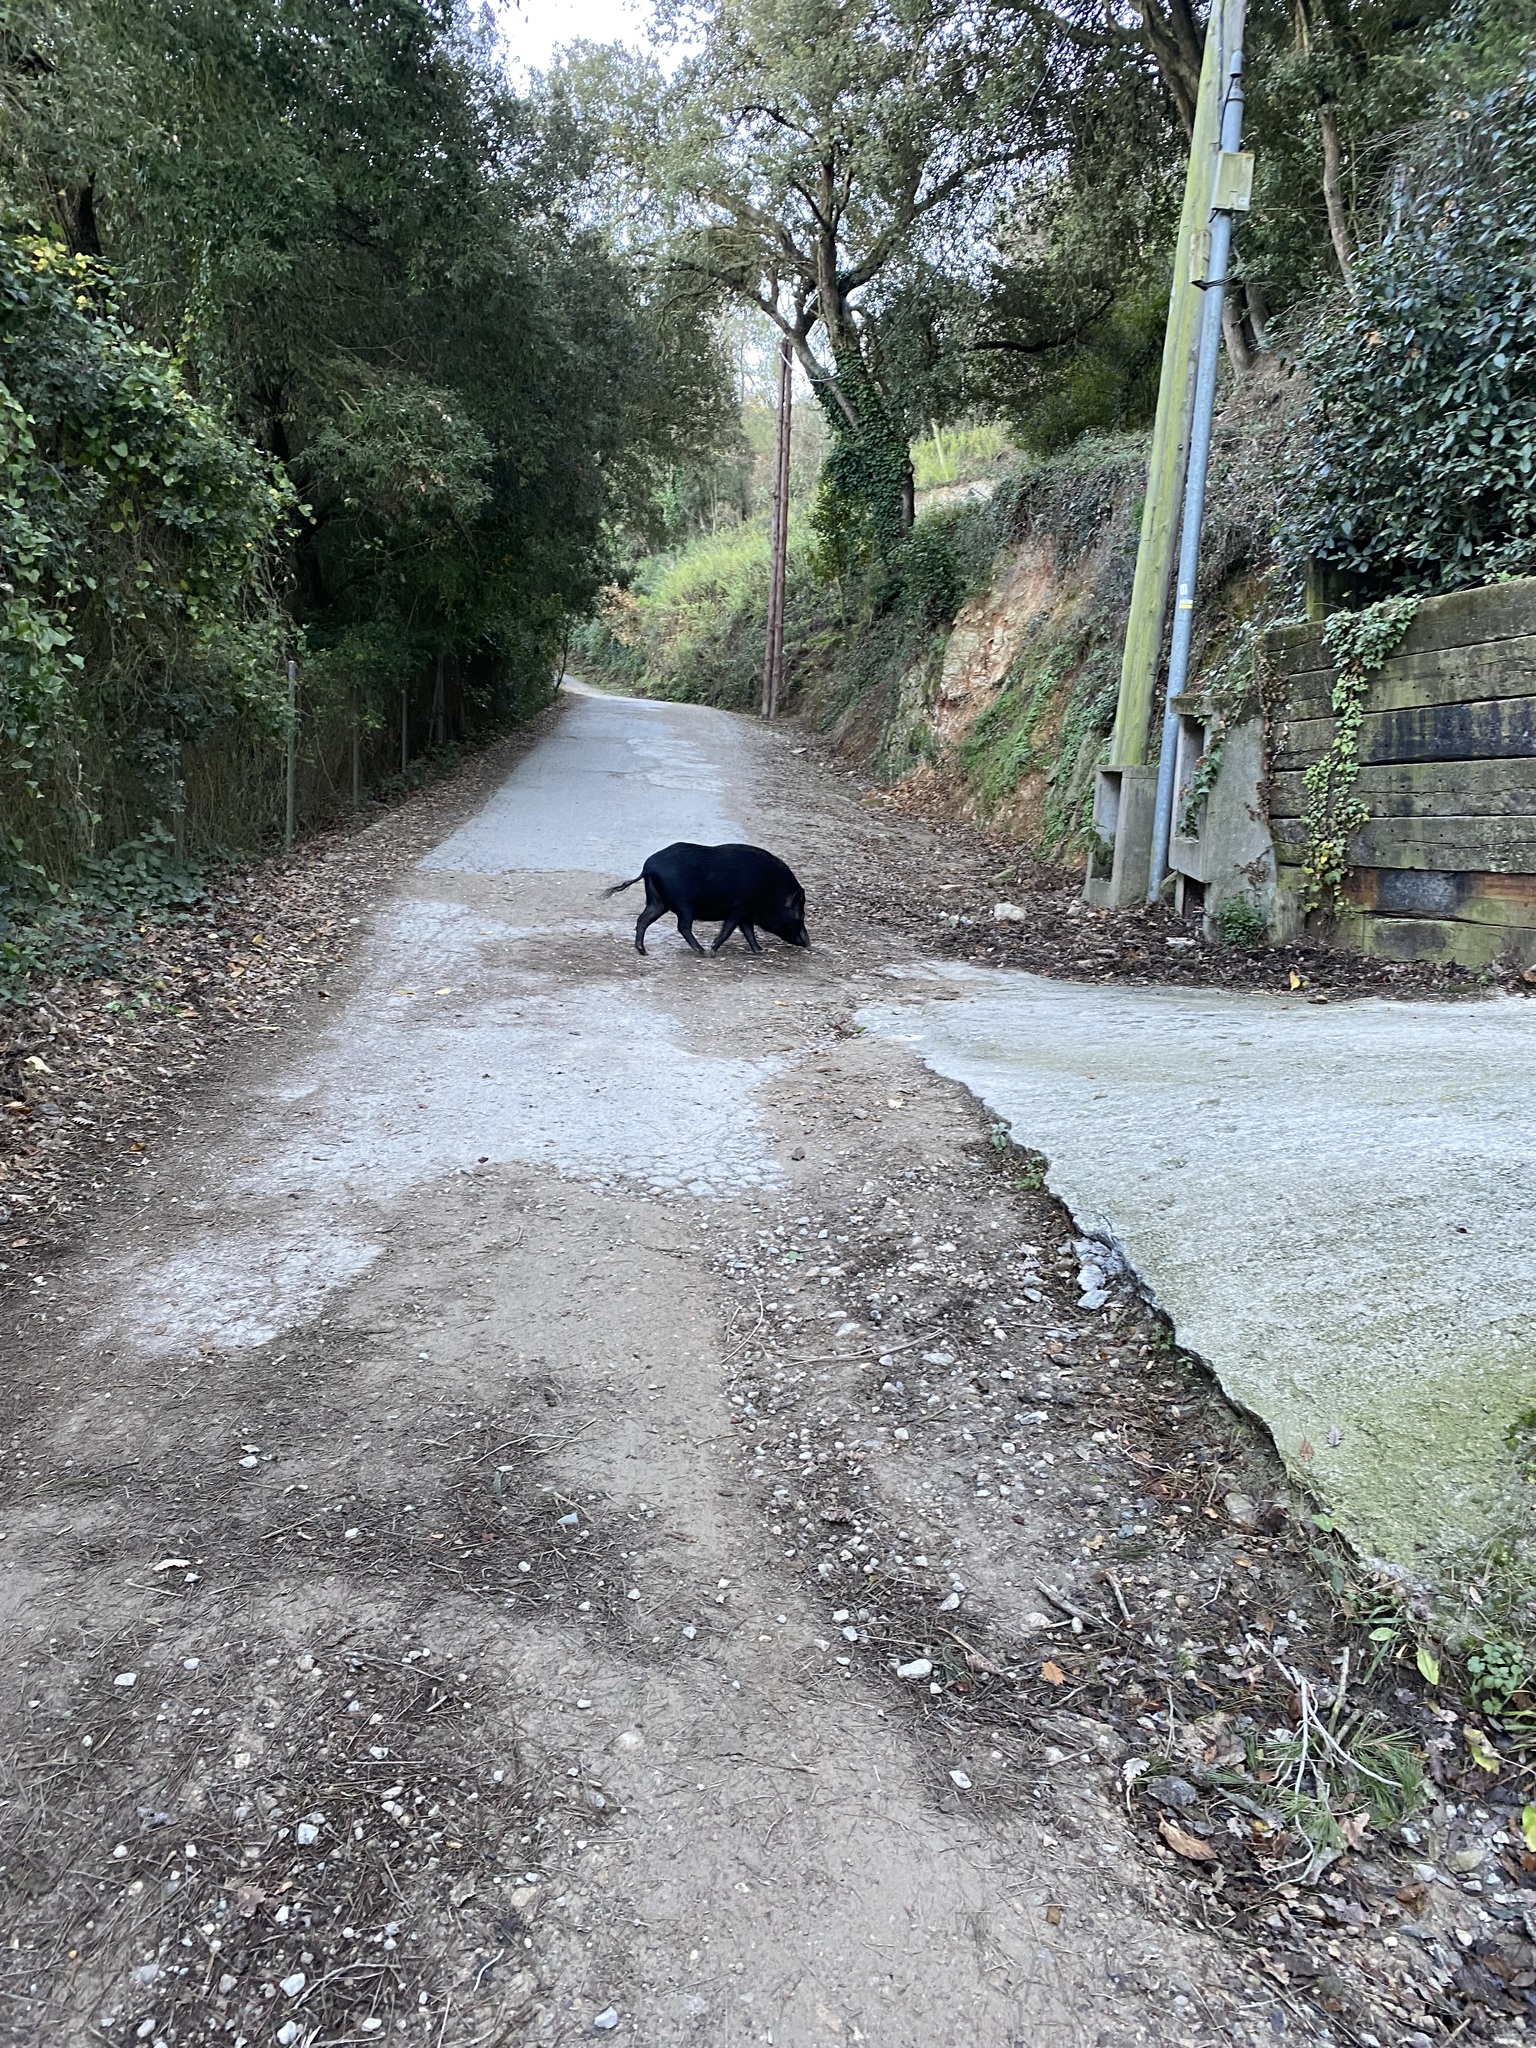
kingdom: Animalia
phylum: Chordata
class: Mammalia
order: Artiodactyla
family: Suidae
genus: Sus
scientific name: Sus scrofa
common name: Wild boar
